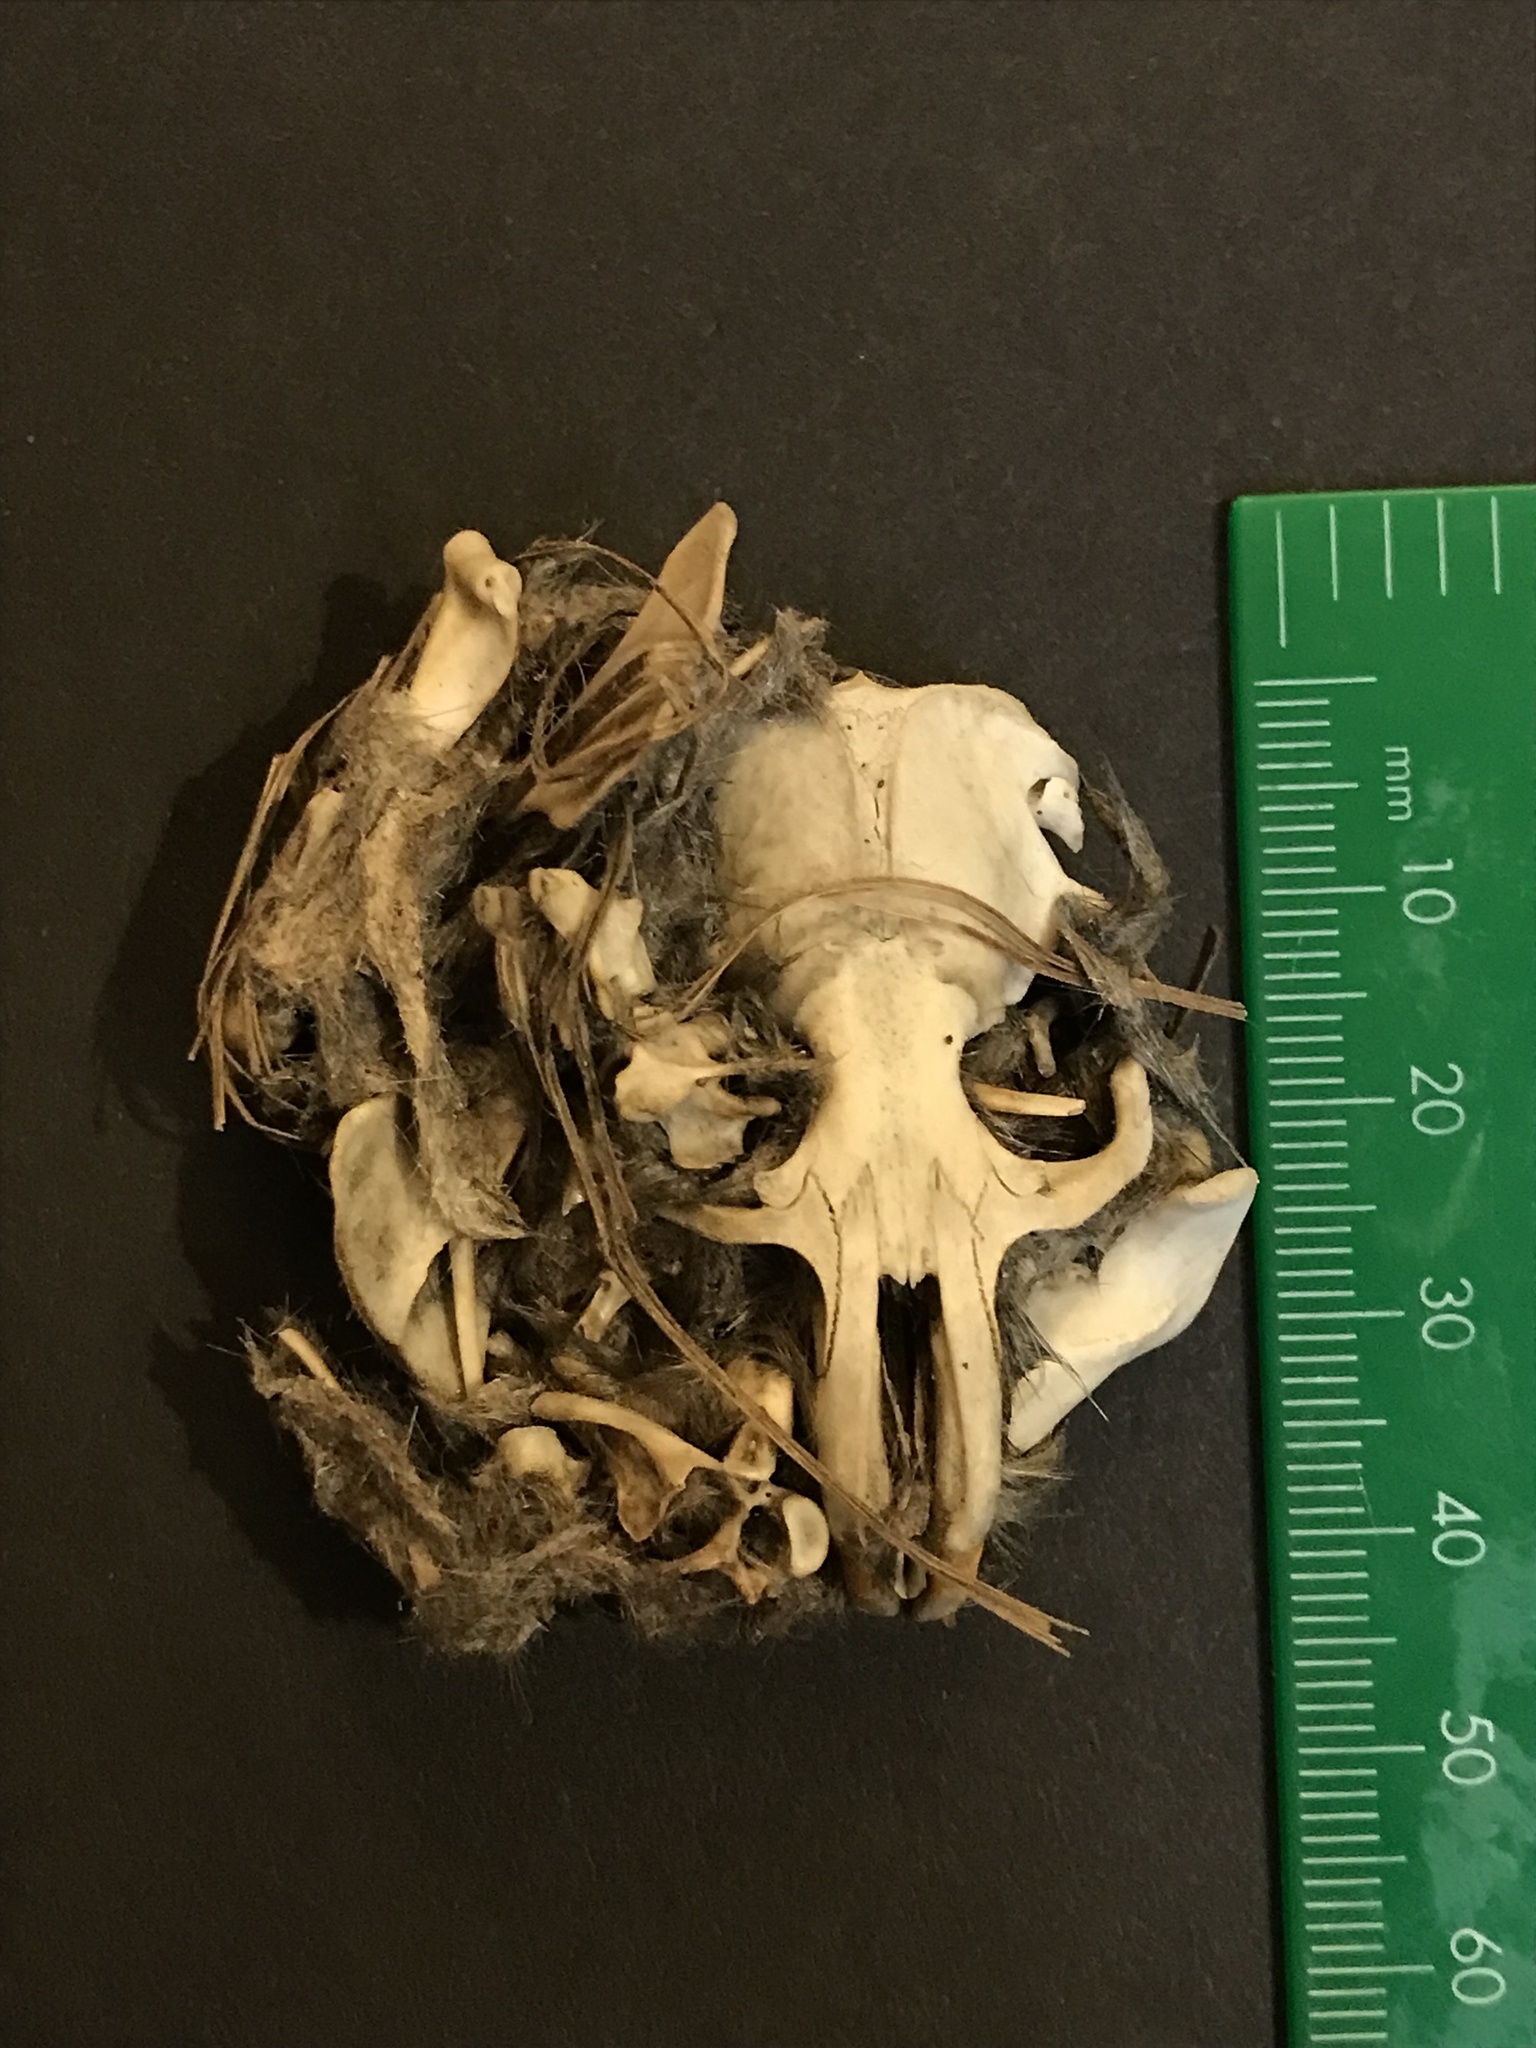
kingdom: Animalia
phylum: Chordata
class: Mammalia
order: Rodentia
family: Geomyidae
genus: Thomomys
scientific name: Thomomys bottae
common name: Botta's pocket gopher
